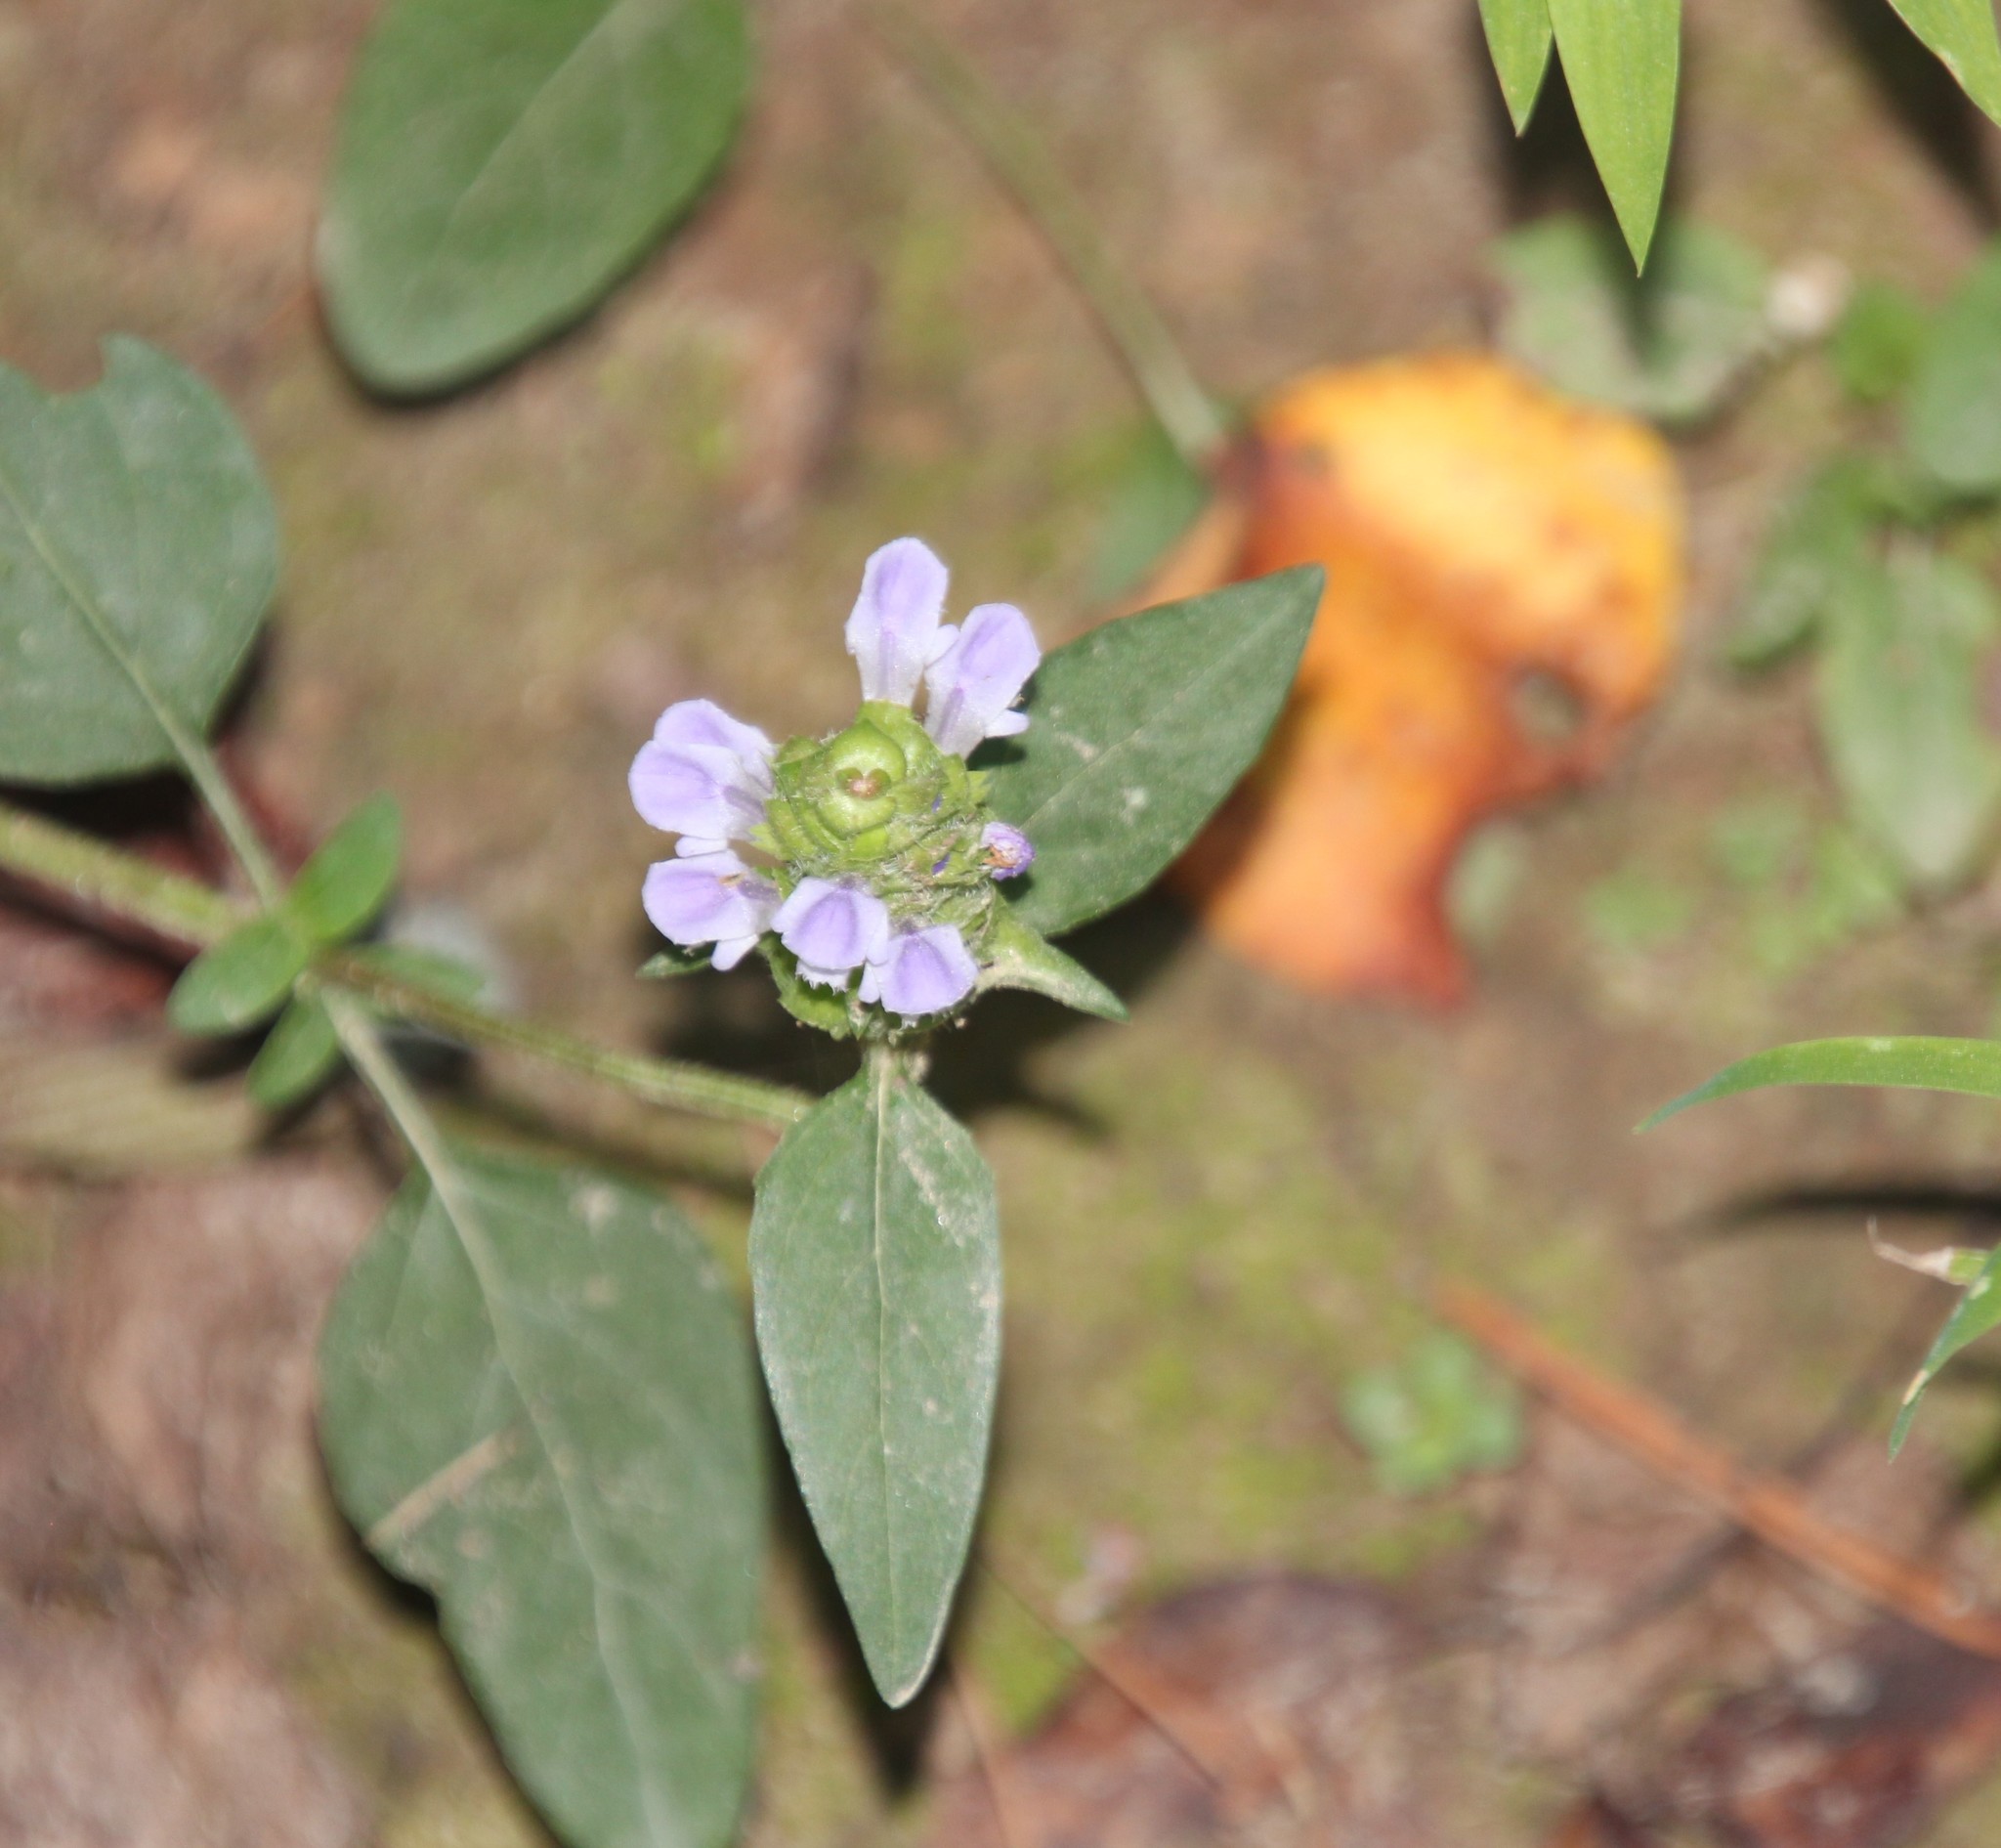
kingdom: Plantae
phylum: Tracheophyta
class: Magnoliopsida
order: Lamiales
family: Lamiaceae
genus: Prunella
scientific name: Prunella vulgaris
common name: Heal-all
